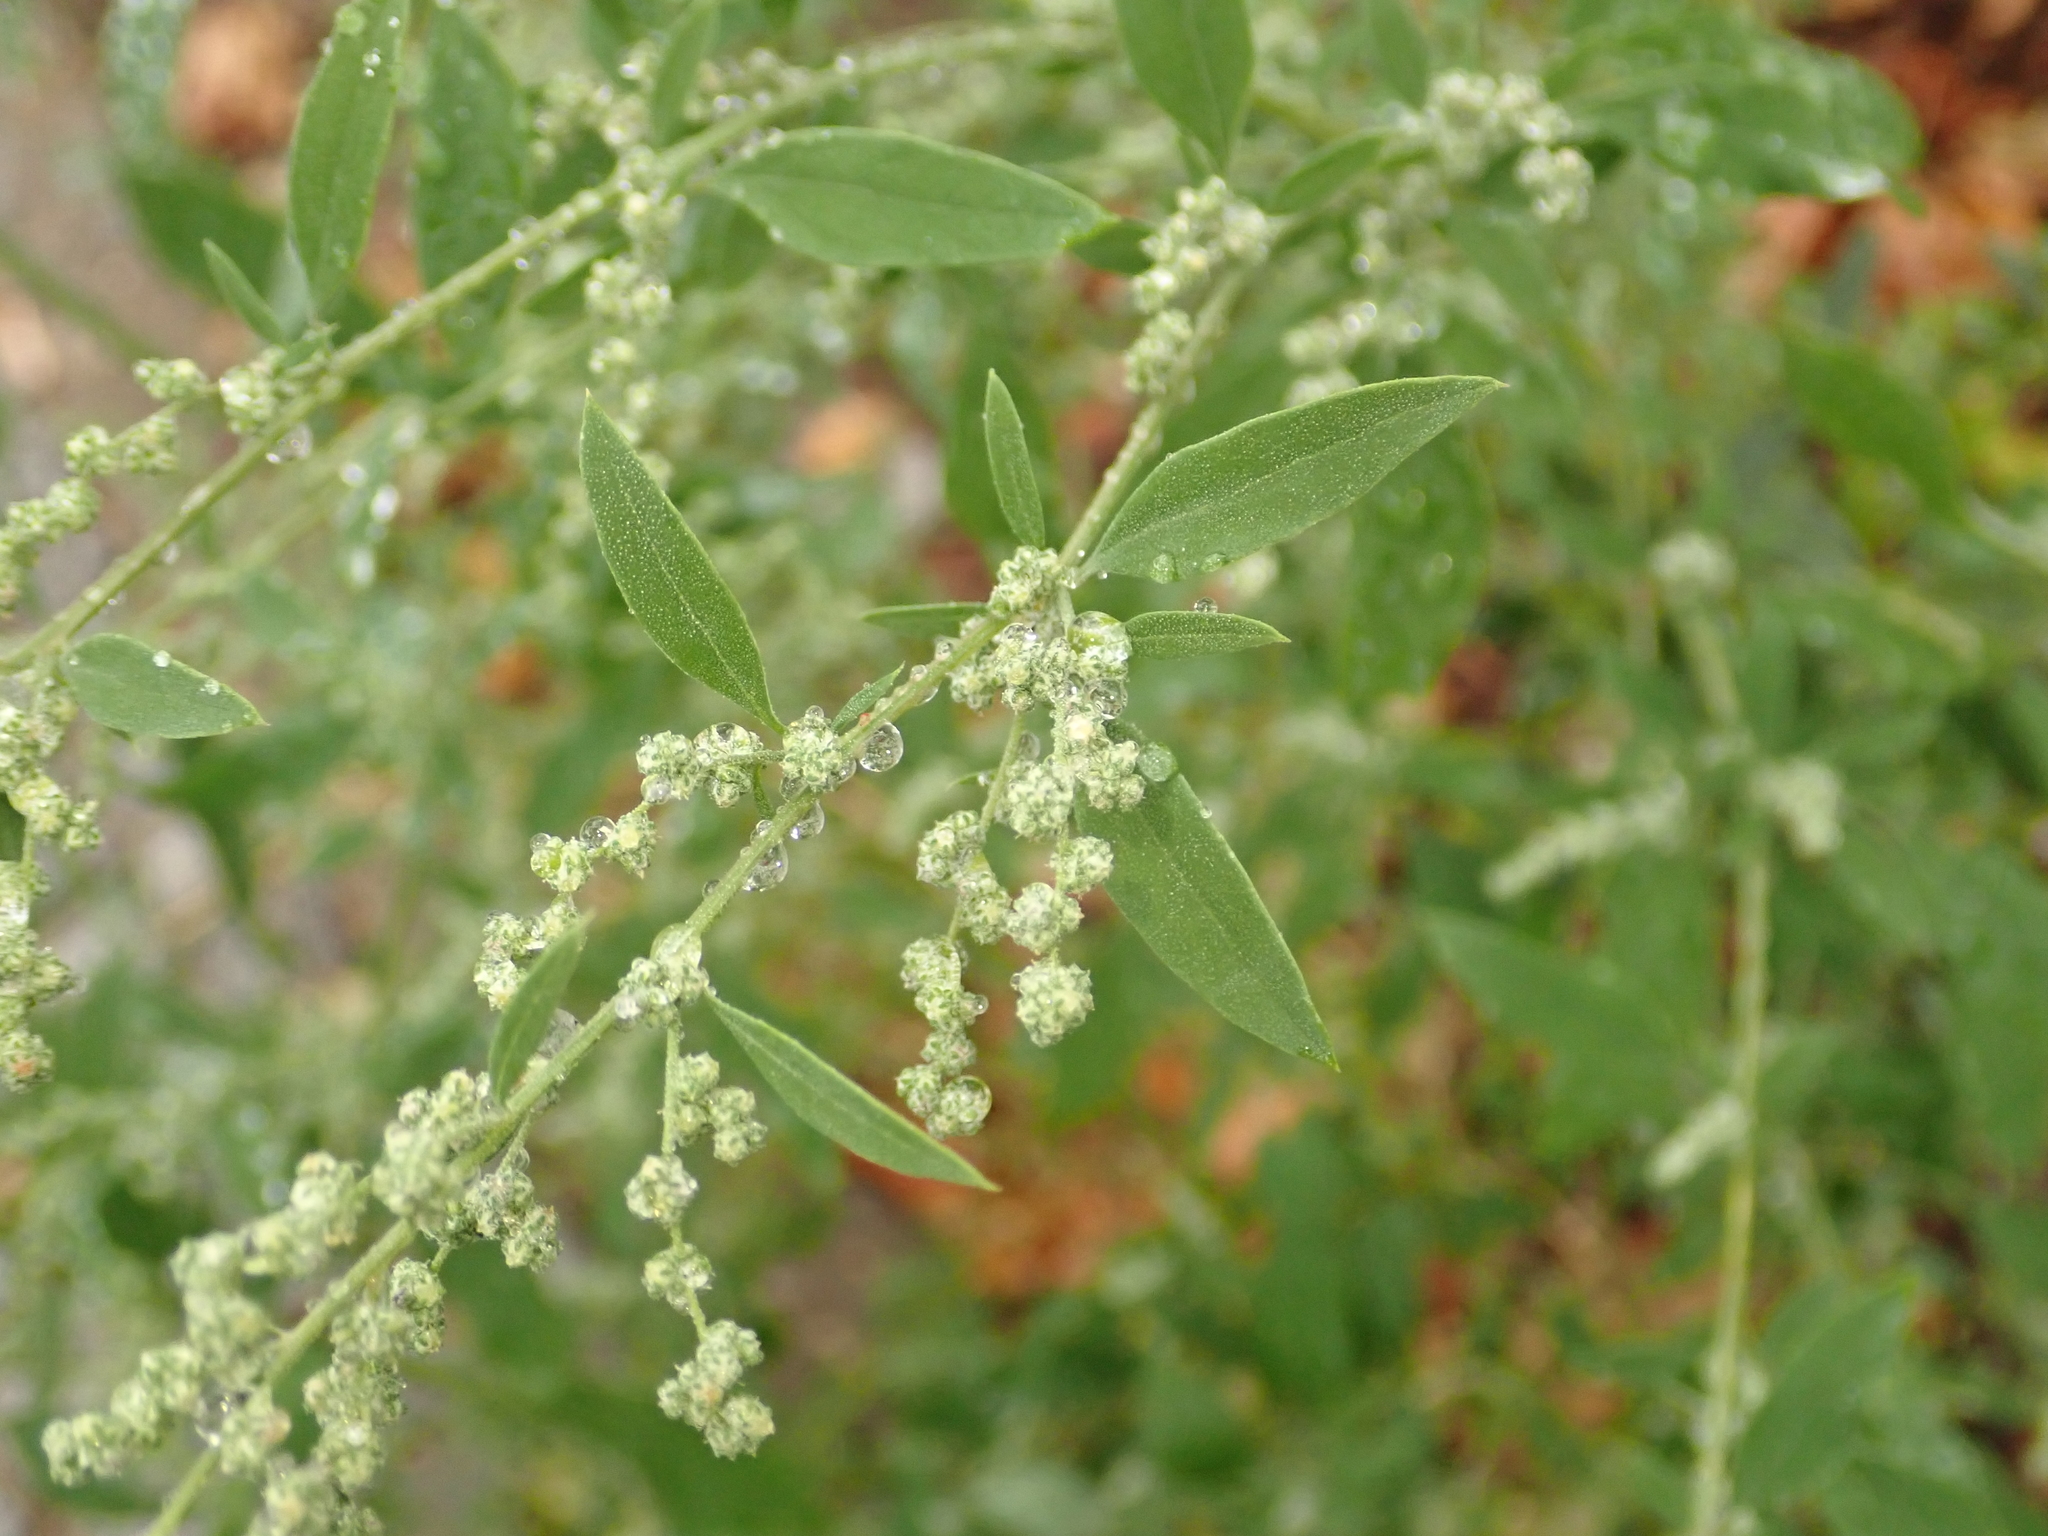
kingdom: Plantae
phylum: Tracheophyta
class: Magnoliopsida
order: Caryophyllales
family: Amaranthaceae
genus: Chenopodium
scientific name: Chenopodium album
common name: Fat-hen
